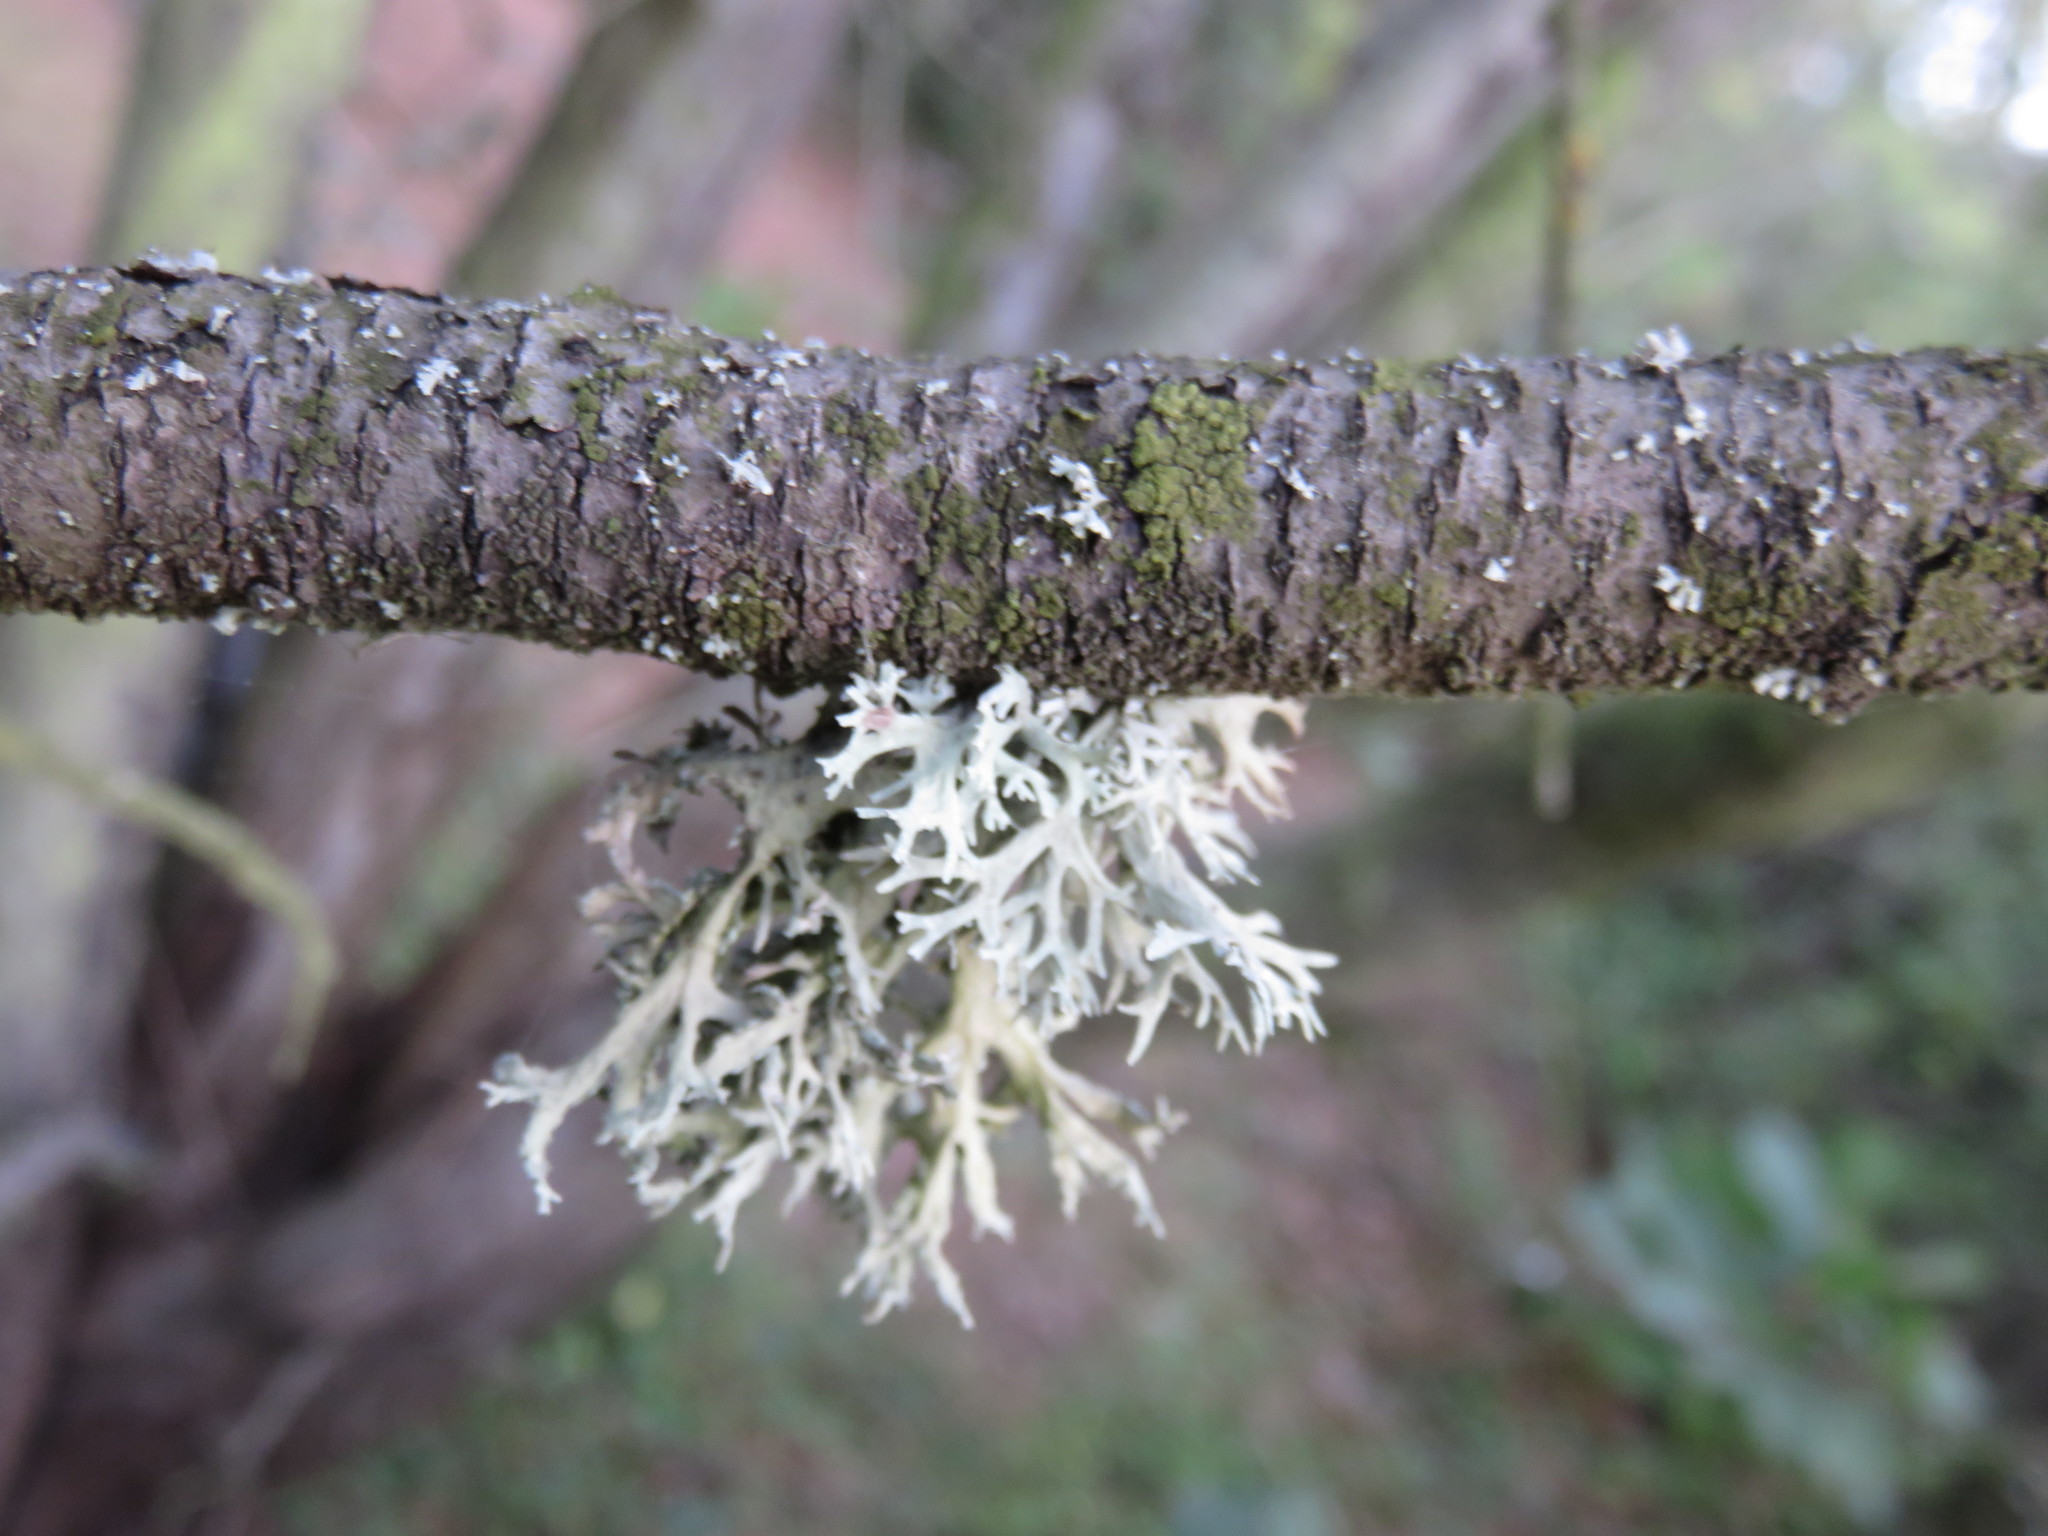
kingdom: Fungi
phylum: Ascomycota
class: Lecanoromycetes
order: Lecanorales
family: Parmeliaceae
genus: Evernia
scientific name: Evernia prunastri
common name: Oak moss
